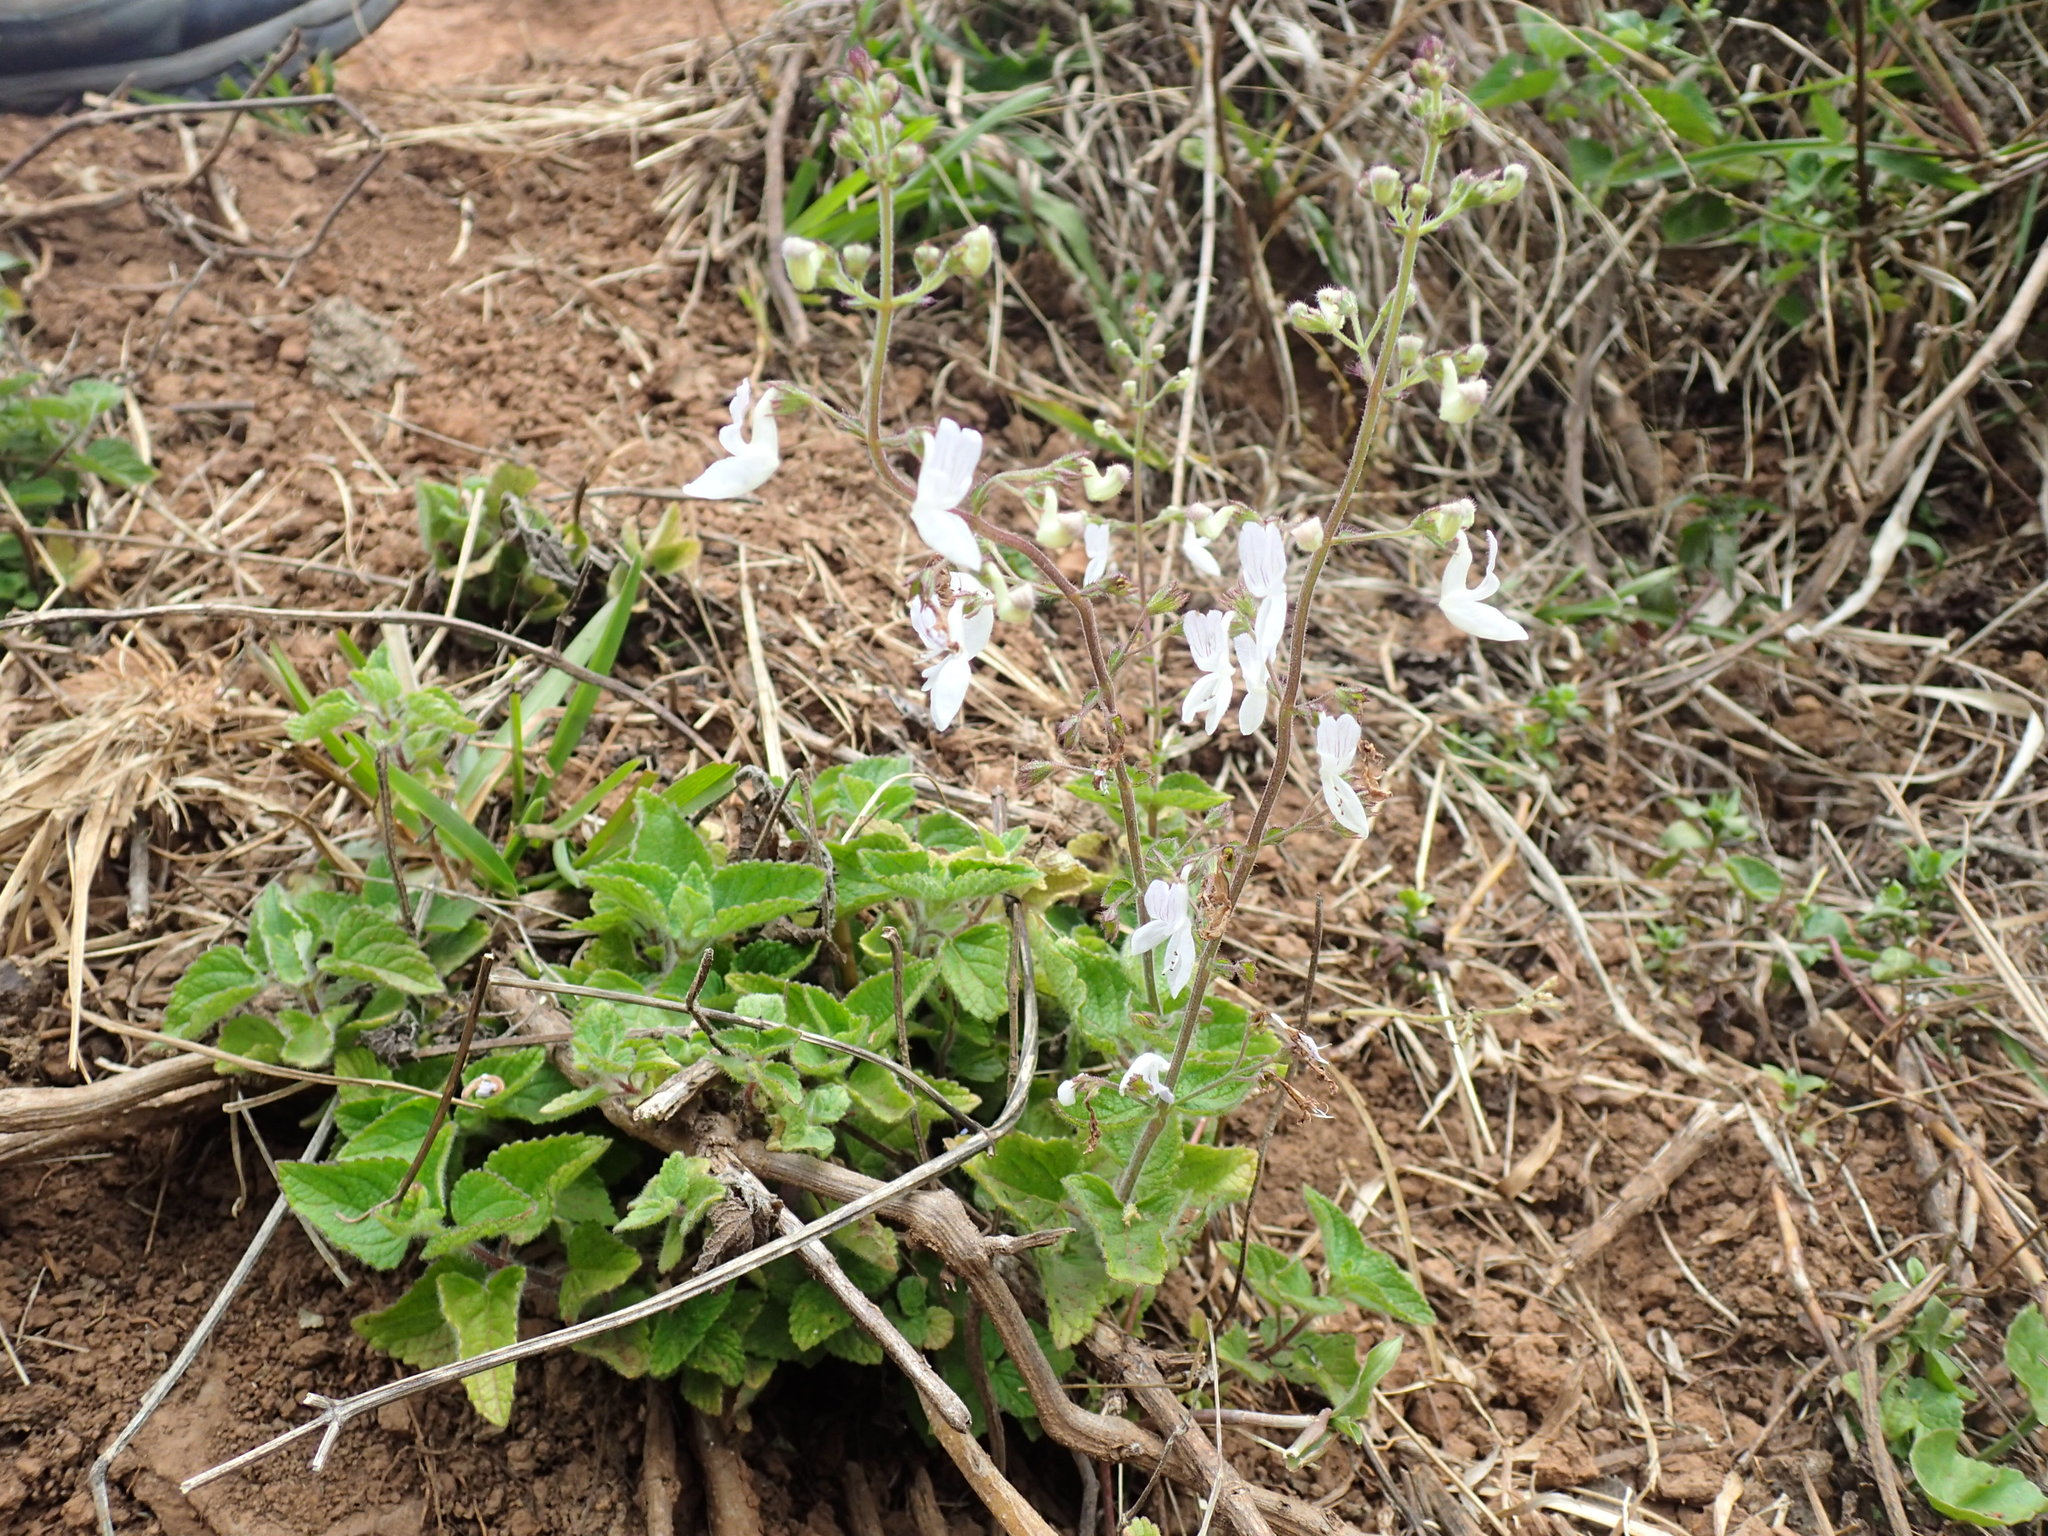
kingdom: Plantae
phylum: Tracheophyta
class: Magnoliopsida
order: Lamiales
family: Lamiaceae
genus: Equilabium
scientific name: Equilabium laxiflorum
